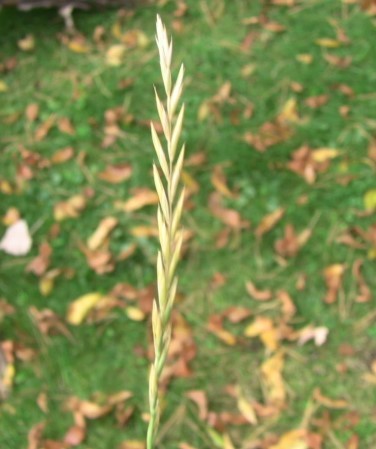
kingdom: Plantae
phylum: Tracheophyta
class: Liliopsida
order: Poales
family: Poaceae
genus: Elymus
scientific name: Elymus repens
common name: Quackgrass
